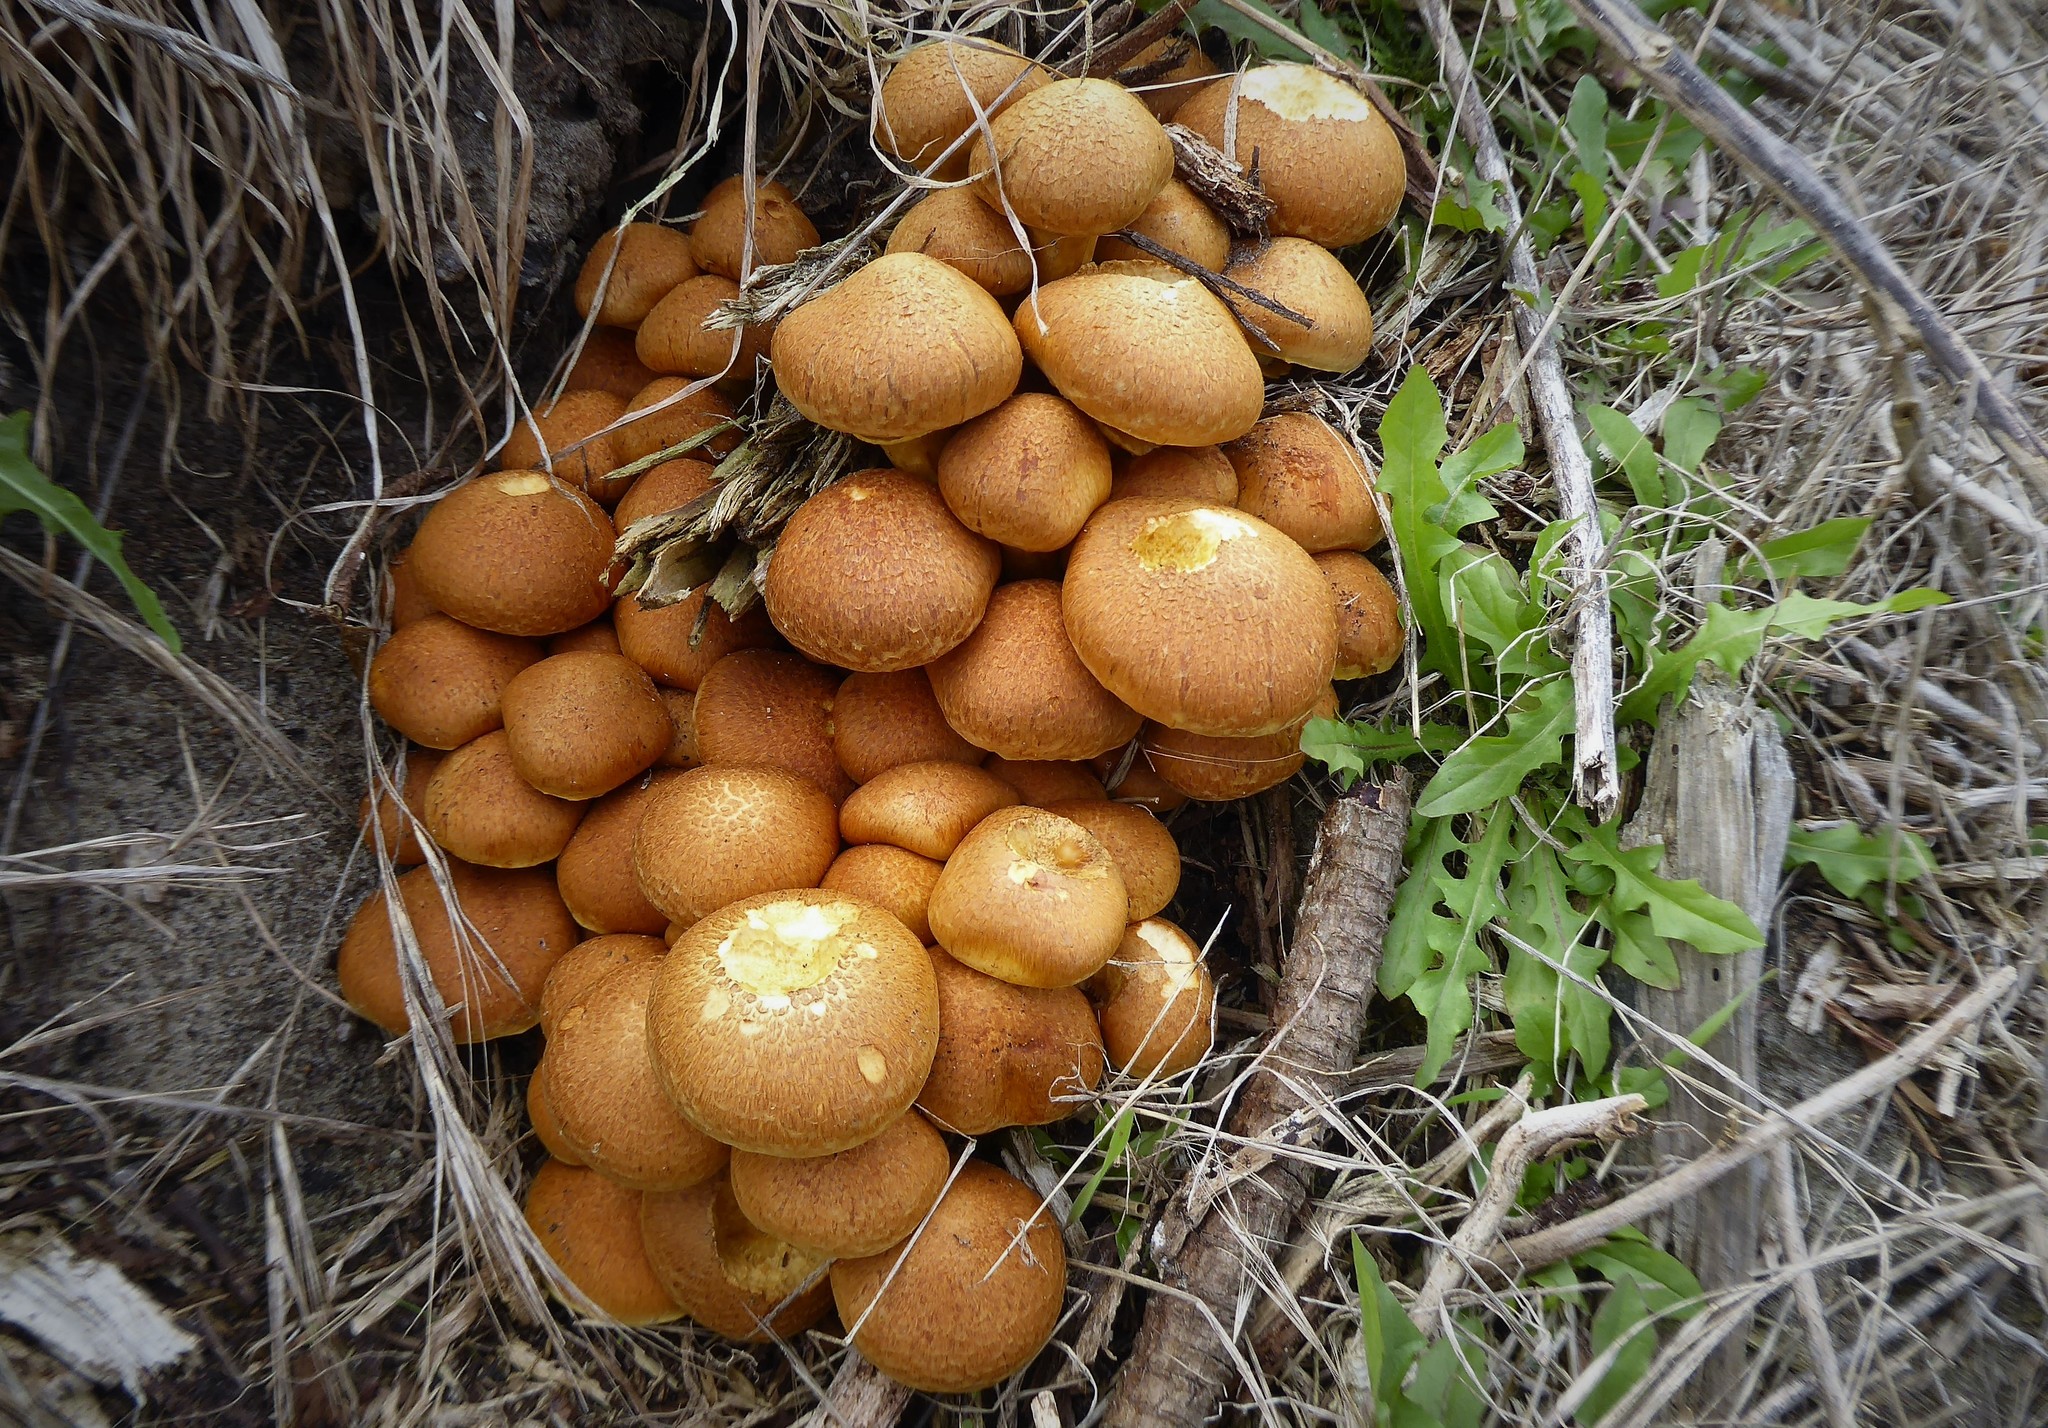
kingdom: Fungi
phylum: Basidiomycota
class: Agaricomycetes
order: Agaricales
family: Hymenogastraceae
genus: Gymnopilus
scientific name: Gymnopilus junonius
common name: Spectacular rustgill
